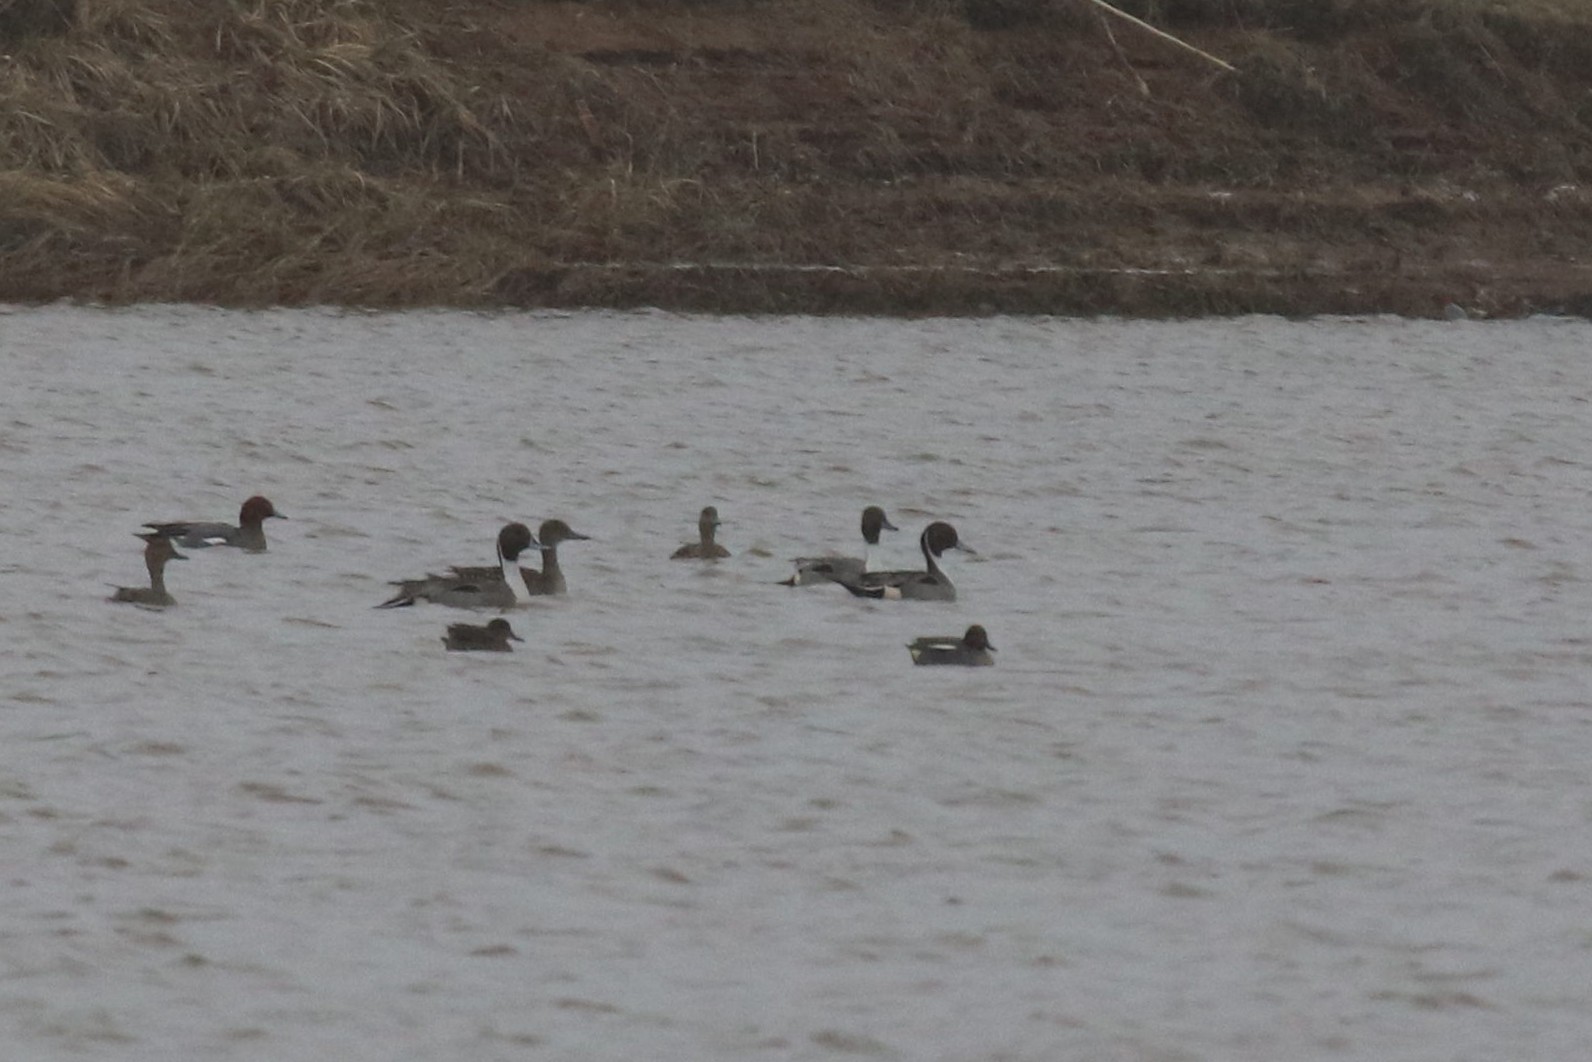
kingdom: Animalia
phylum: Chordata
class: Aves
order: Anseriformes
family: Anatidae
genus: Anas
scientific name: Anas acuta
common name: Northern pintail
